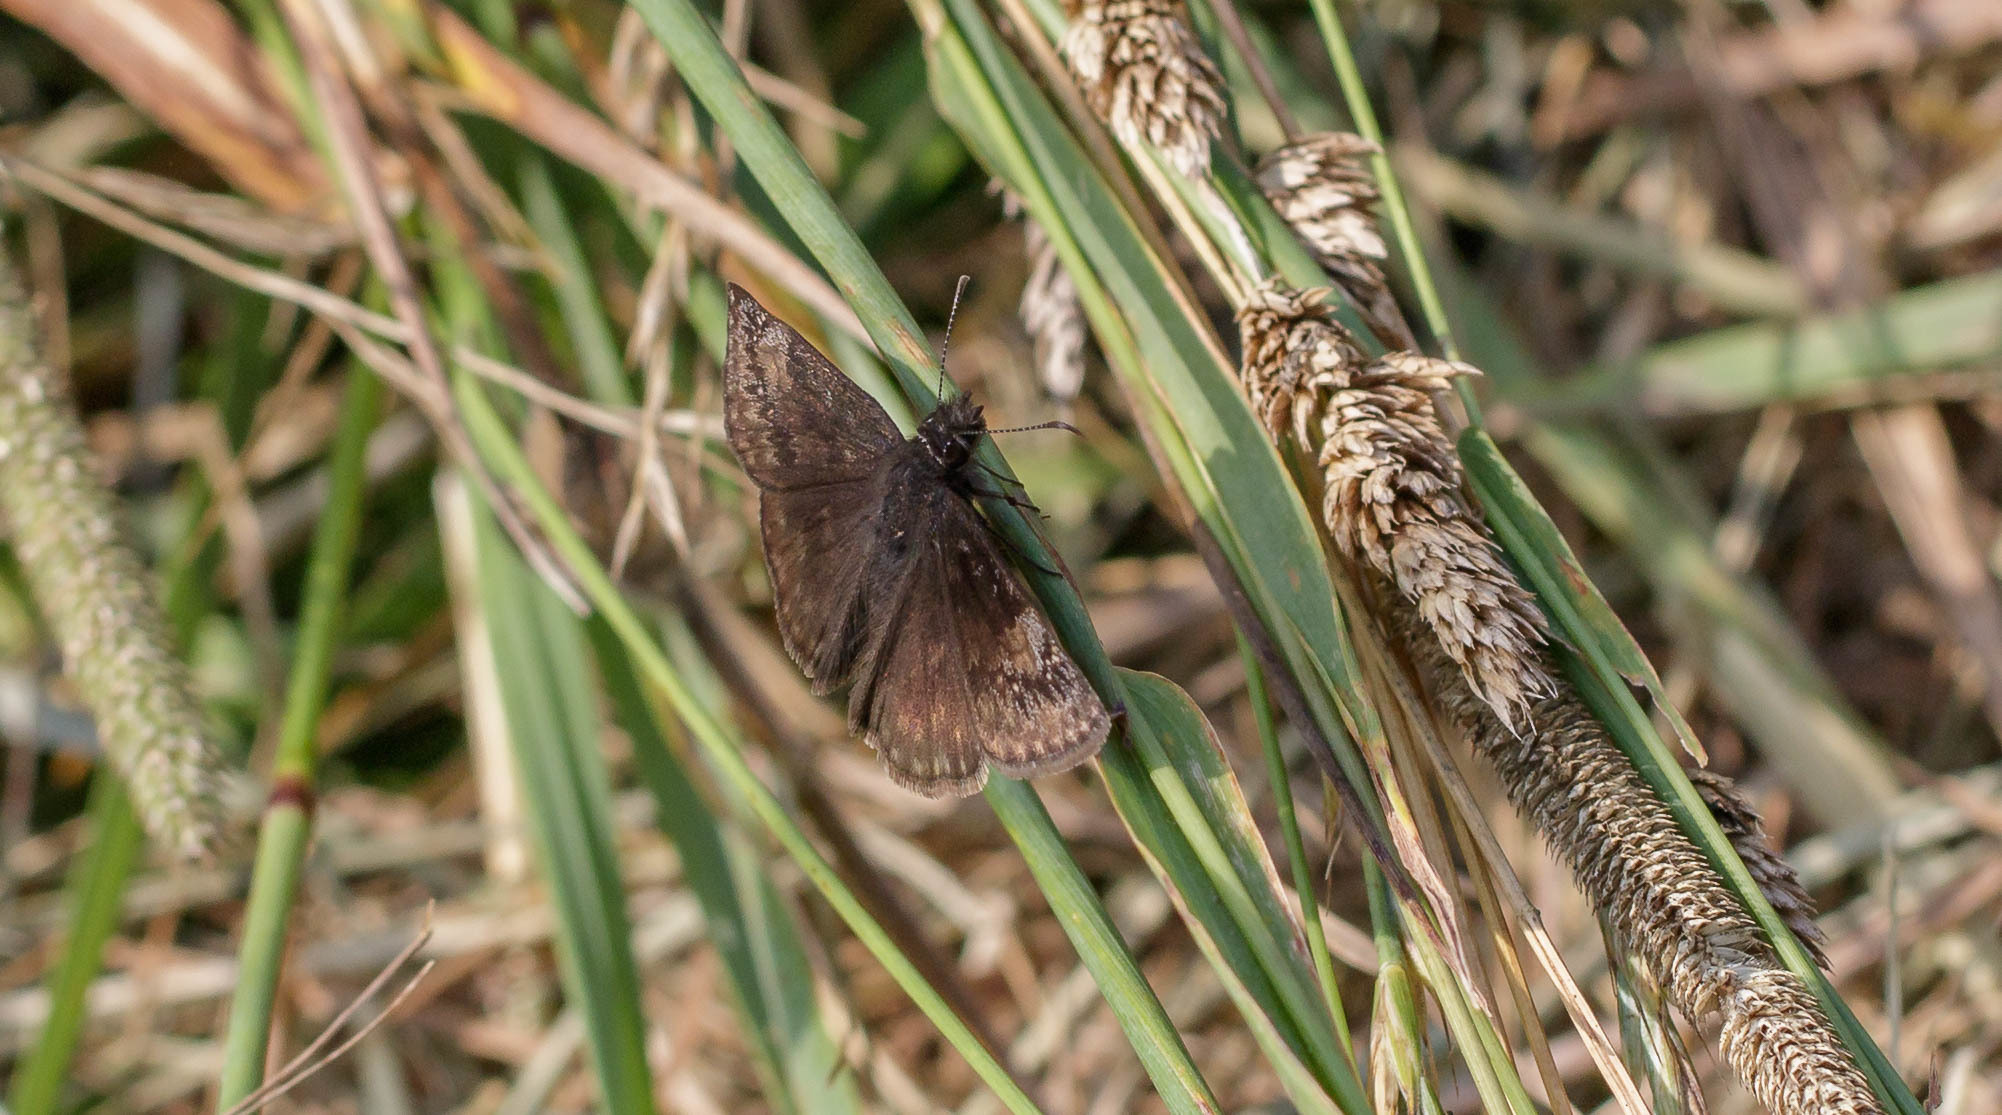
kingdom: Animalia
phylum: Arthropoda
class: Insecta
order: Lepidoptera
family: Hesperiidae
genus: Erynnis
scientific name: Erynnis baptisiae
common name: Wild indigo duskywing
